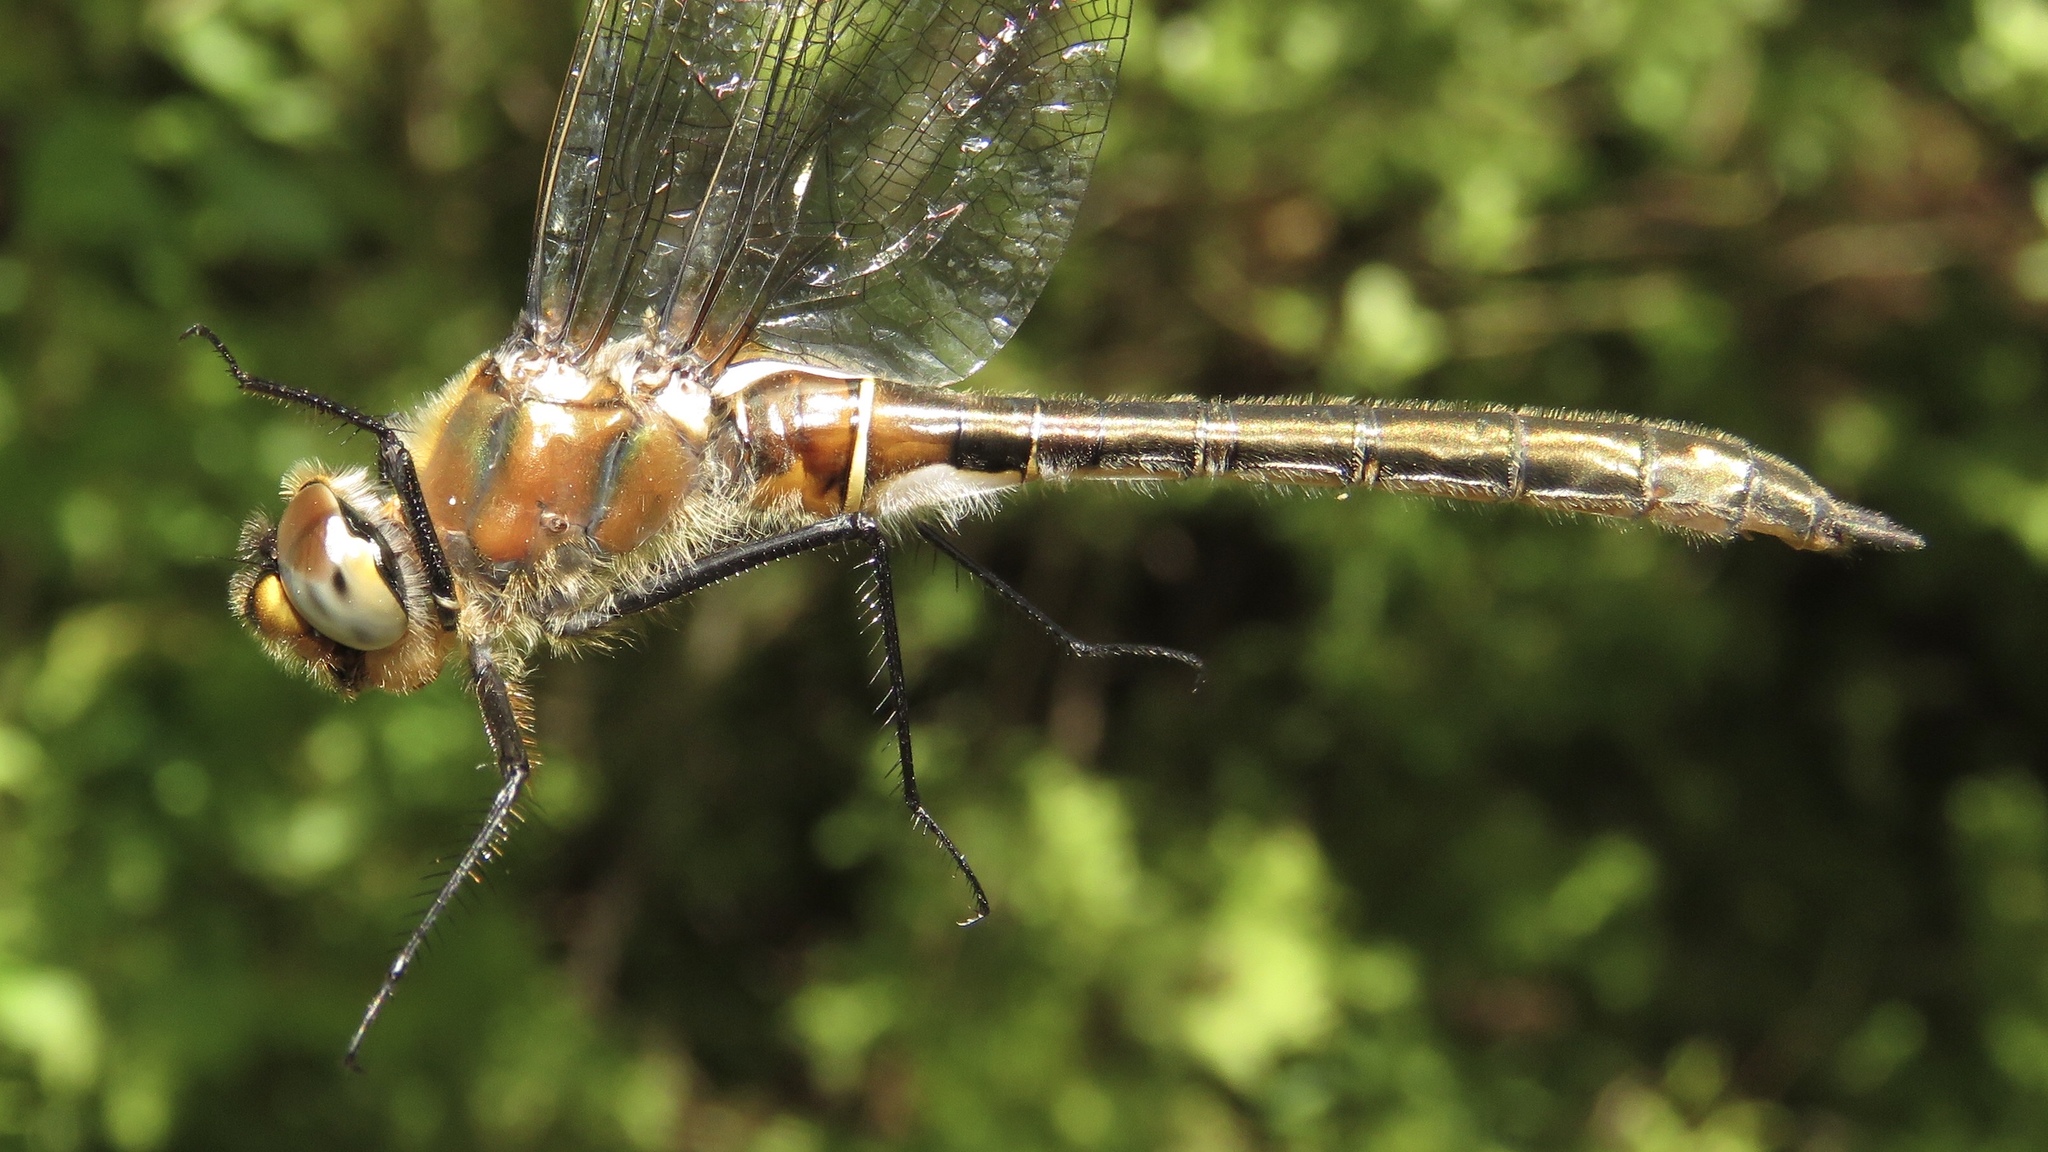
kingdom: Animalia
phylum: Arthropoda
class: Insecta
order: Odonata
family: Corduliidae
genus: Cordulia
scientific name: Cordulia shurtleffii
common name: American emerald
